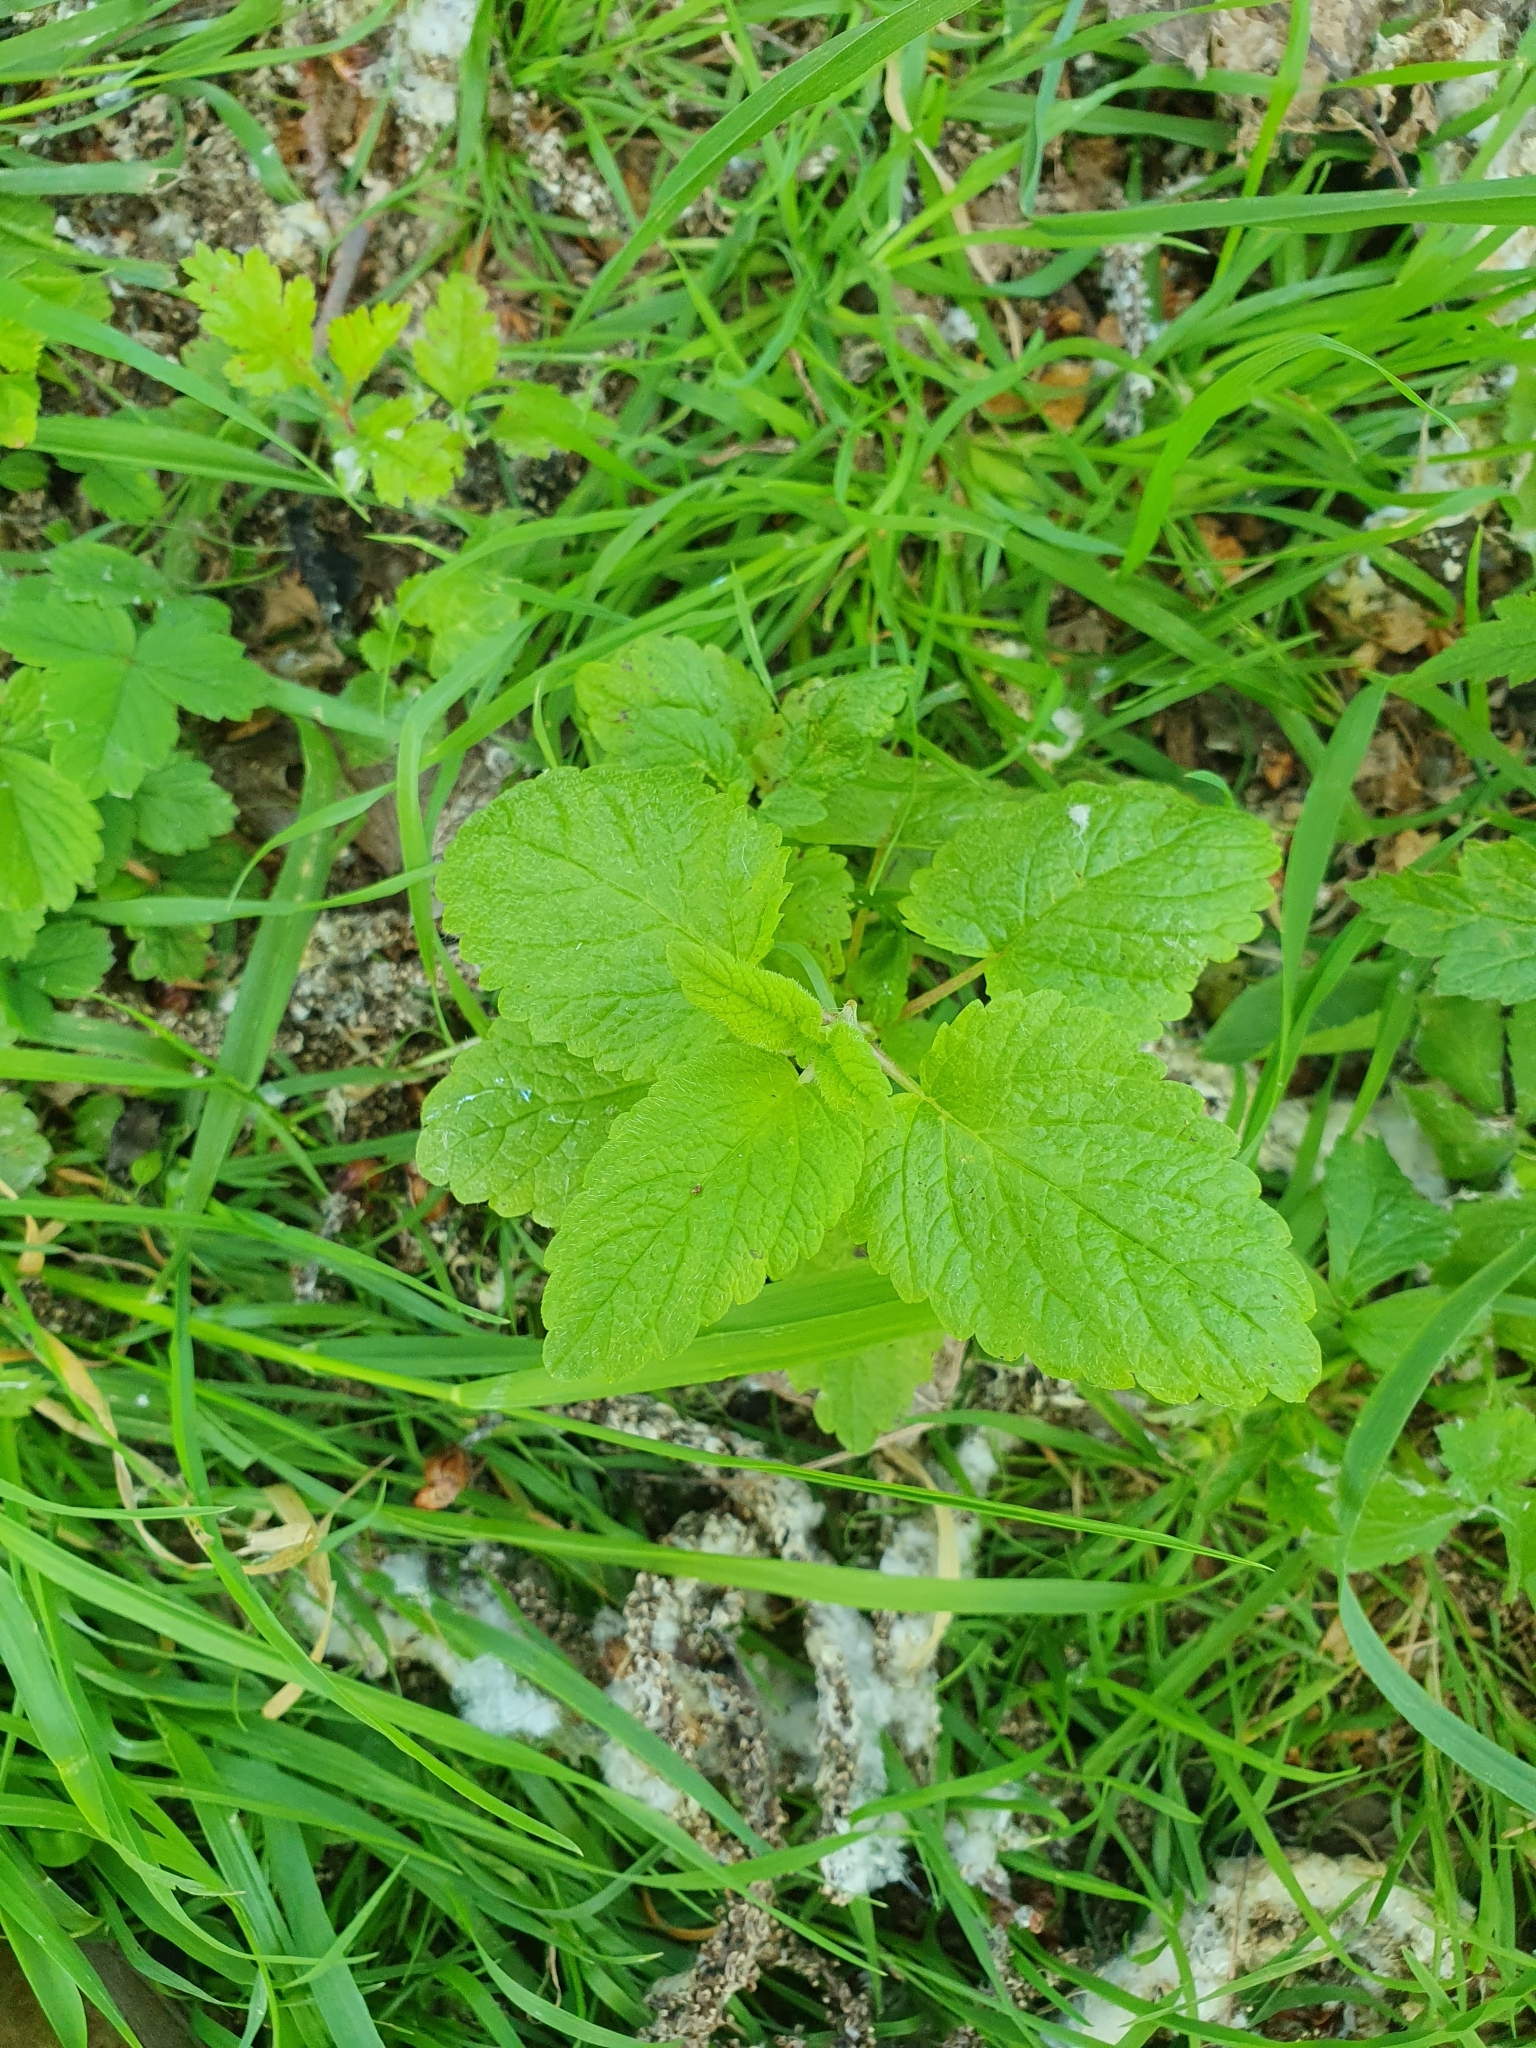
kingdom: Plantae
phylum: Tracheophyta
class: Magnoliopsida
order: Lamiales
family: Lamiaceae
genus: Melissa
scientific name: Melissa officinalis
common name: Balm
